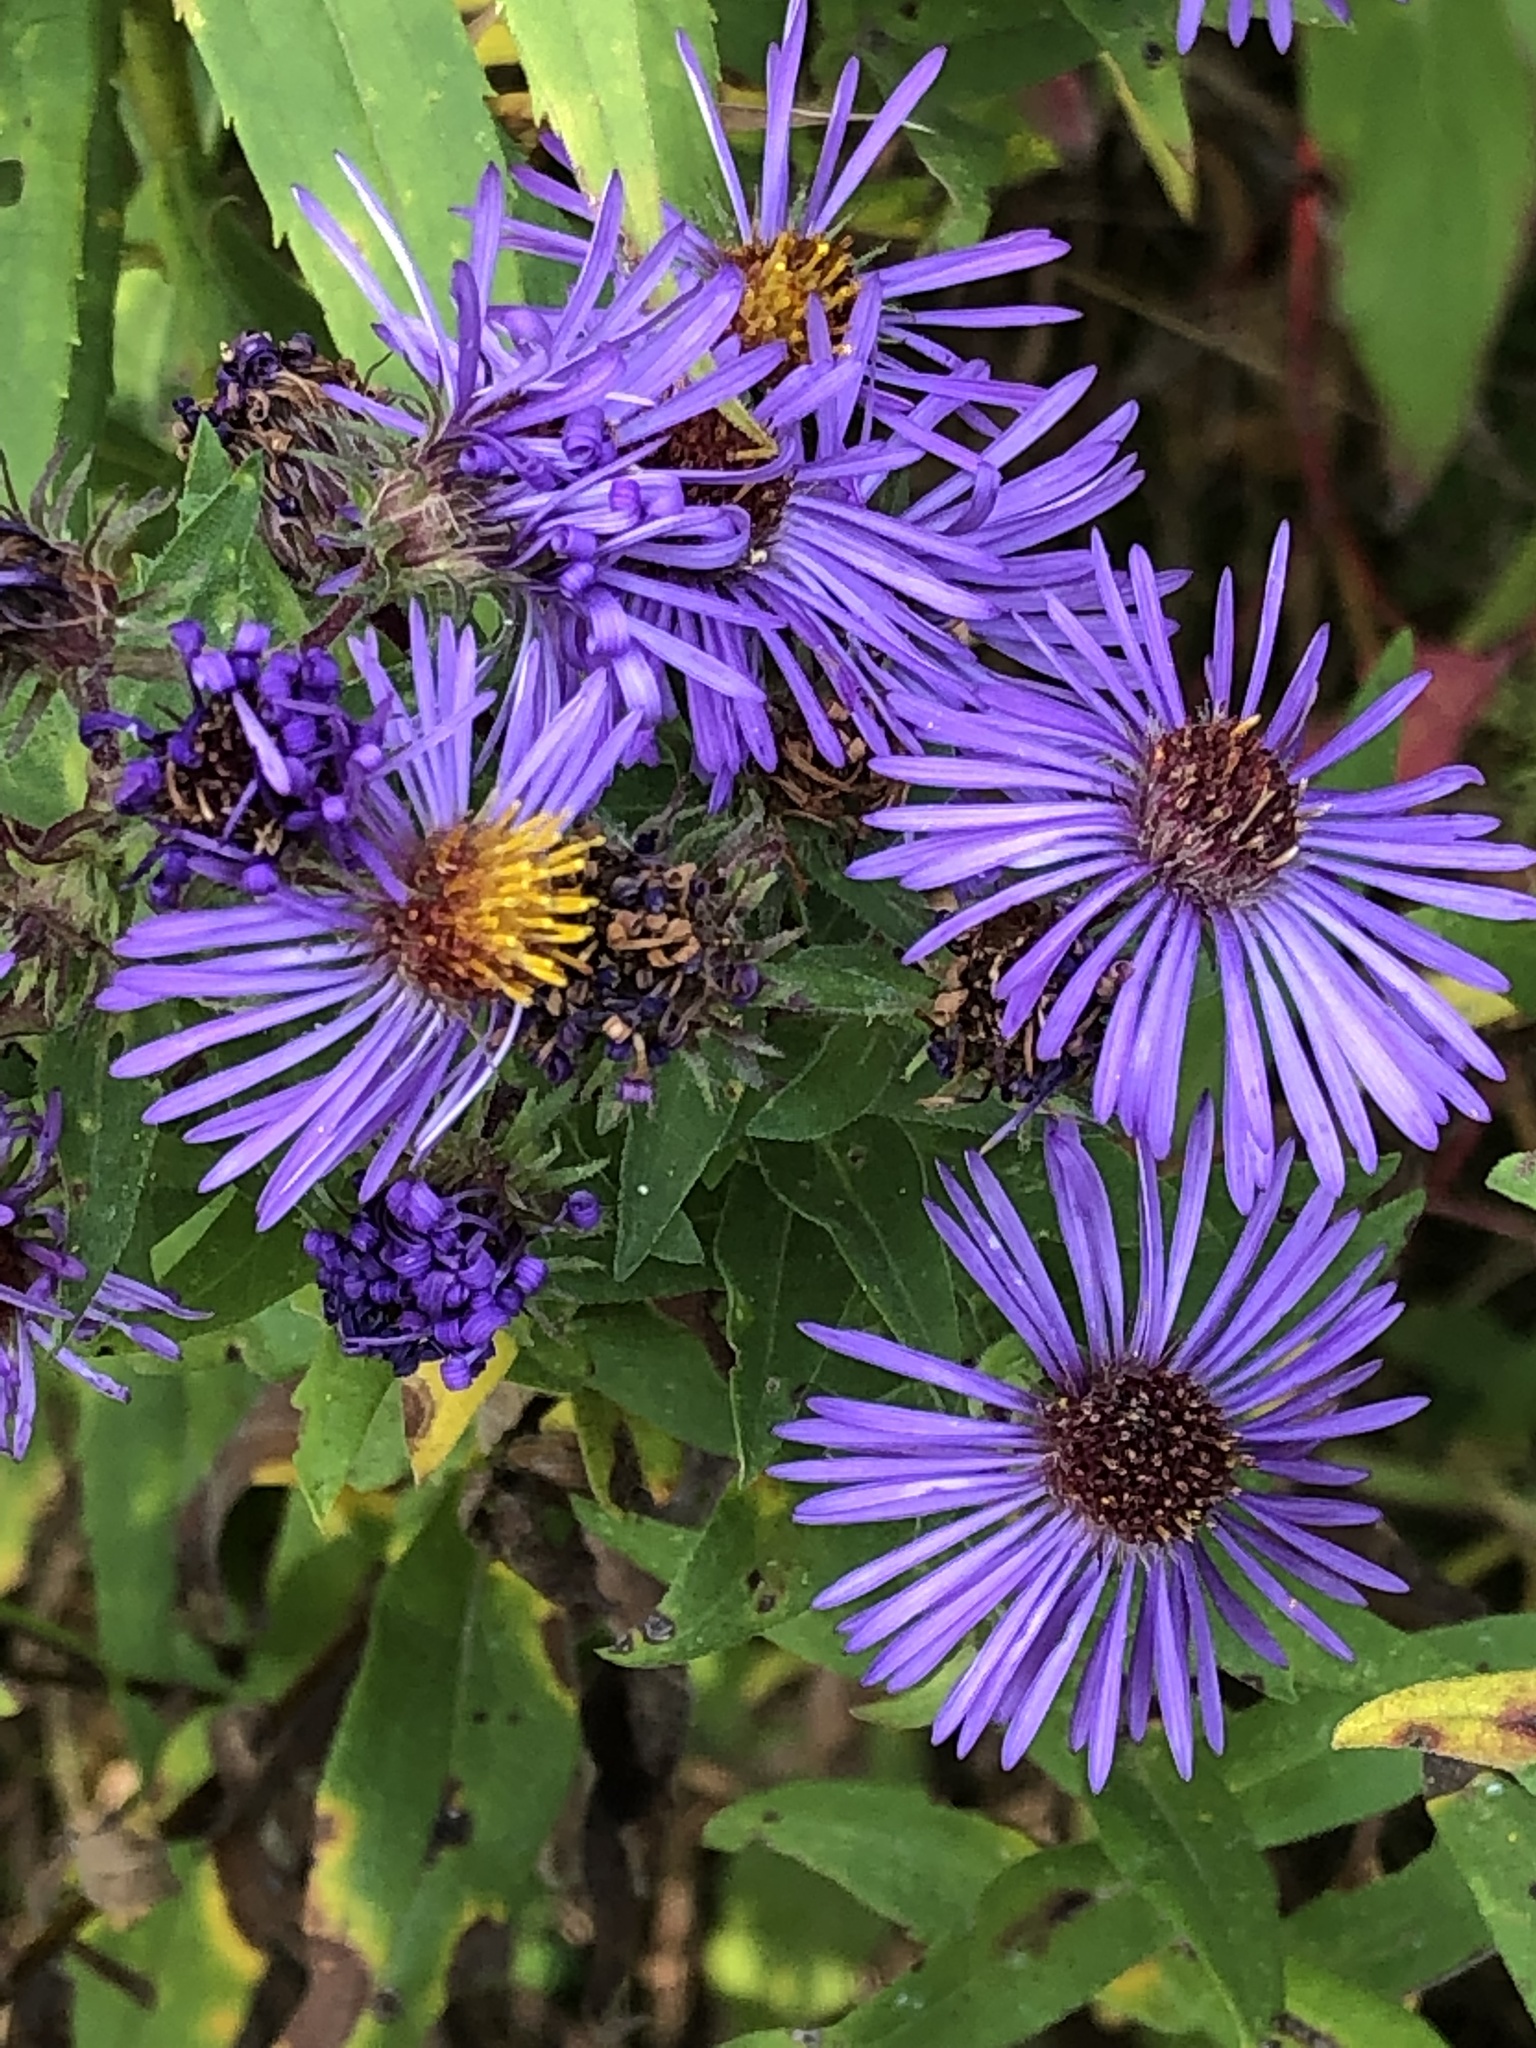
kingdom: Plantae
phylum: Tracheophyta
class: Magnoliopsida
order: Asterales
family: Asteraceae
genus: Symphyotrichum
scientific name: Symphyotrichum novae-angliae
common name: Michaelmas daisy
